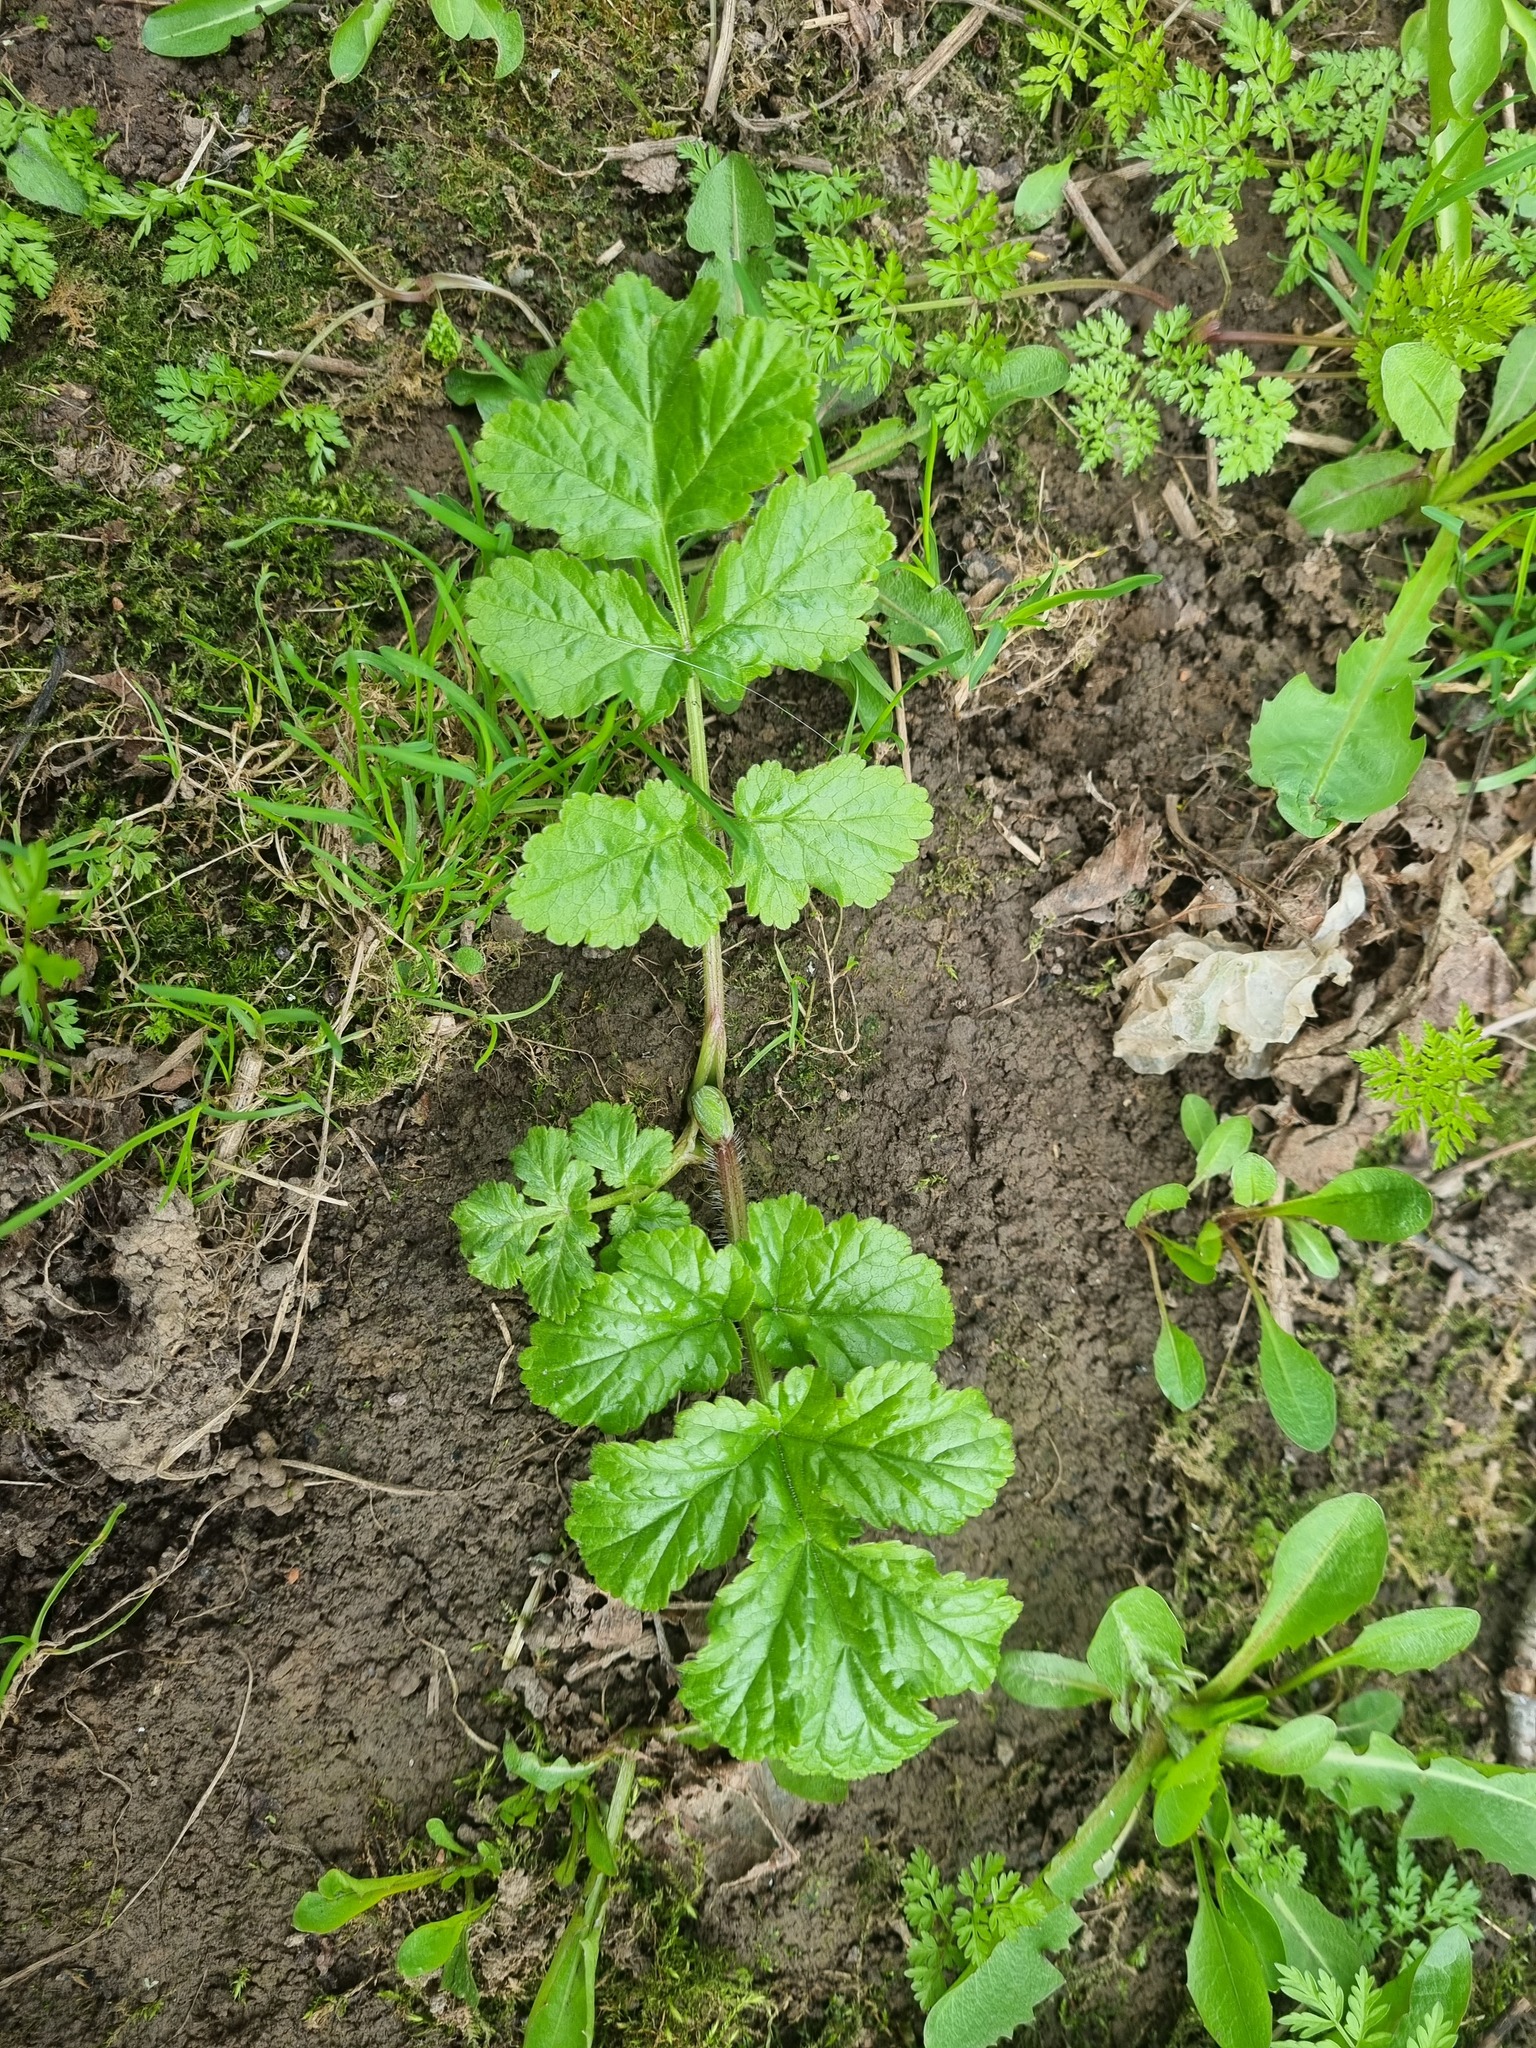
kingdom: Plantae
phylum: Tracheophyta
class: Magnoliopsida
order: Apiales
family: Apiaceae
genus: Heracleum
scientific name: Heracleum sosnowskyi
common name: Sosnowsky's hogweed
